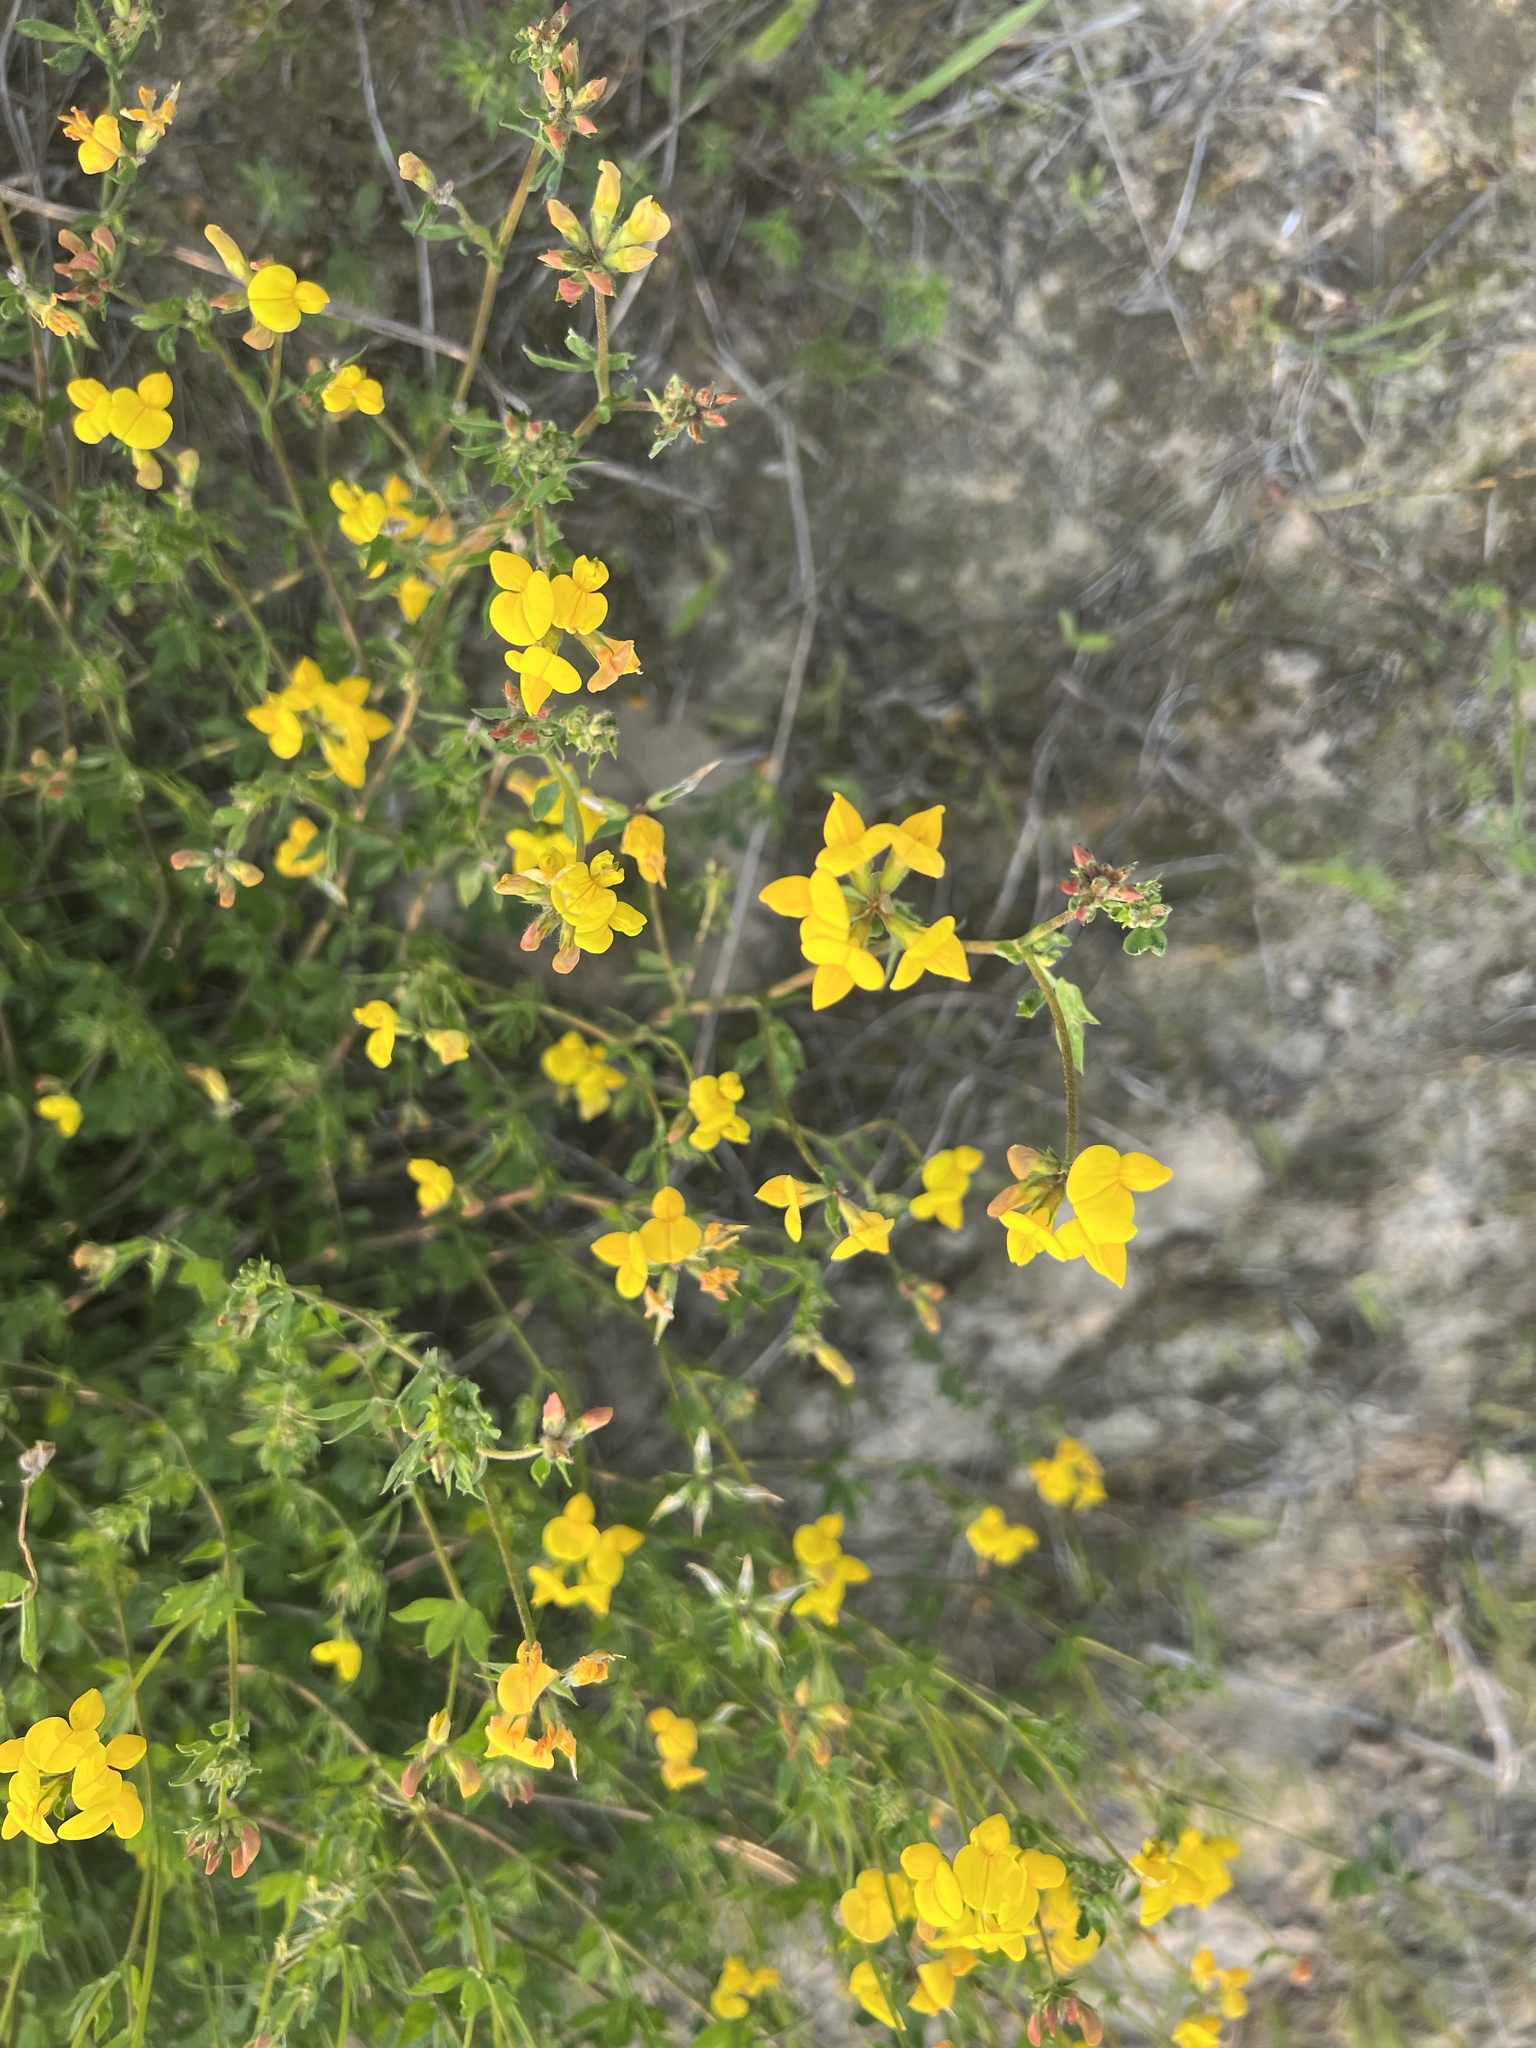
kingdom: Plantae
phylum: Tracheophyta
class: Magnoliopsida
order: Fabales
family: Fabaceae
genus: Lotus
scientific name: Lotus corniculatus
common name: Common bird's-foot-trefoil
